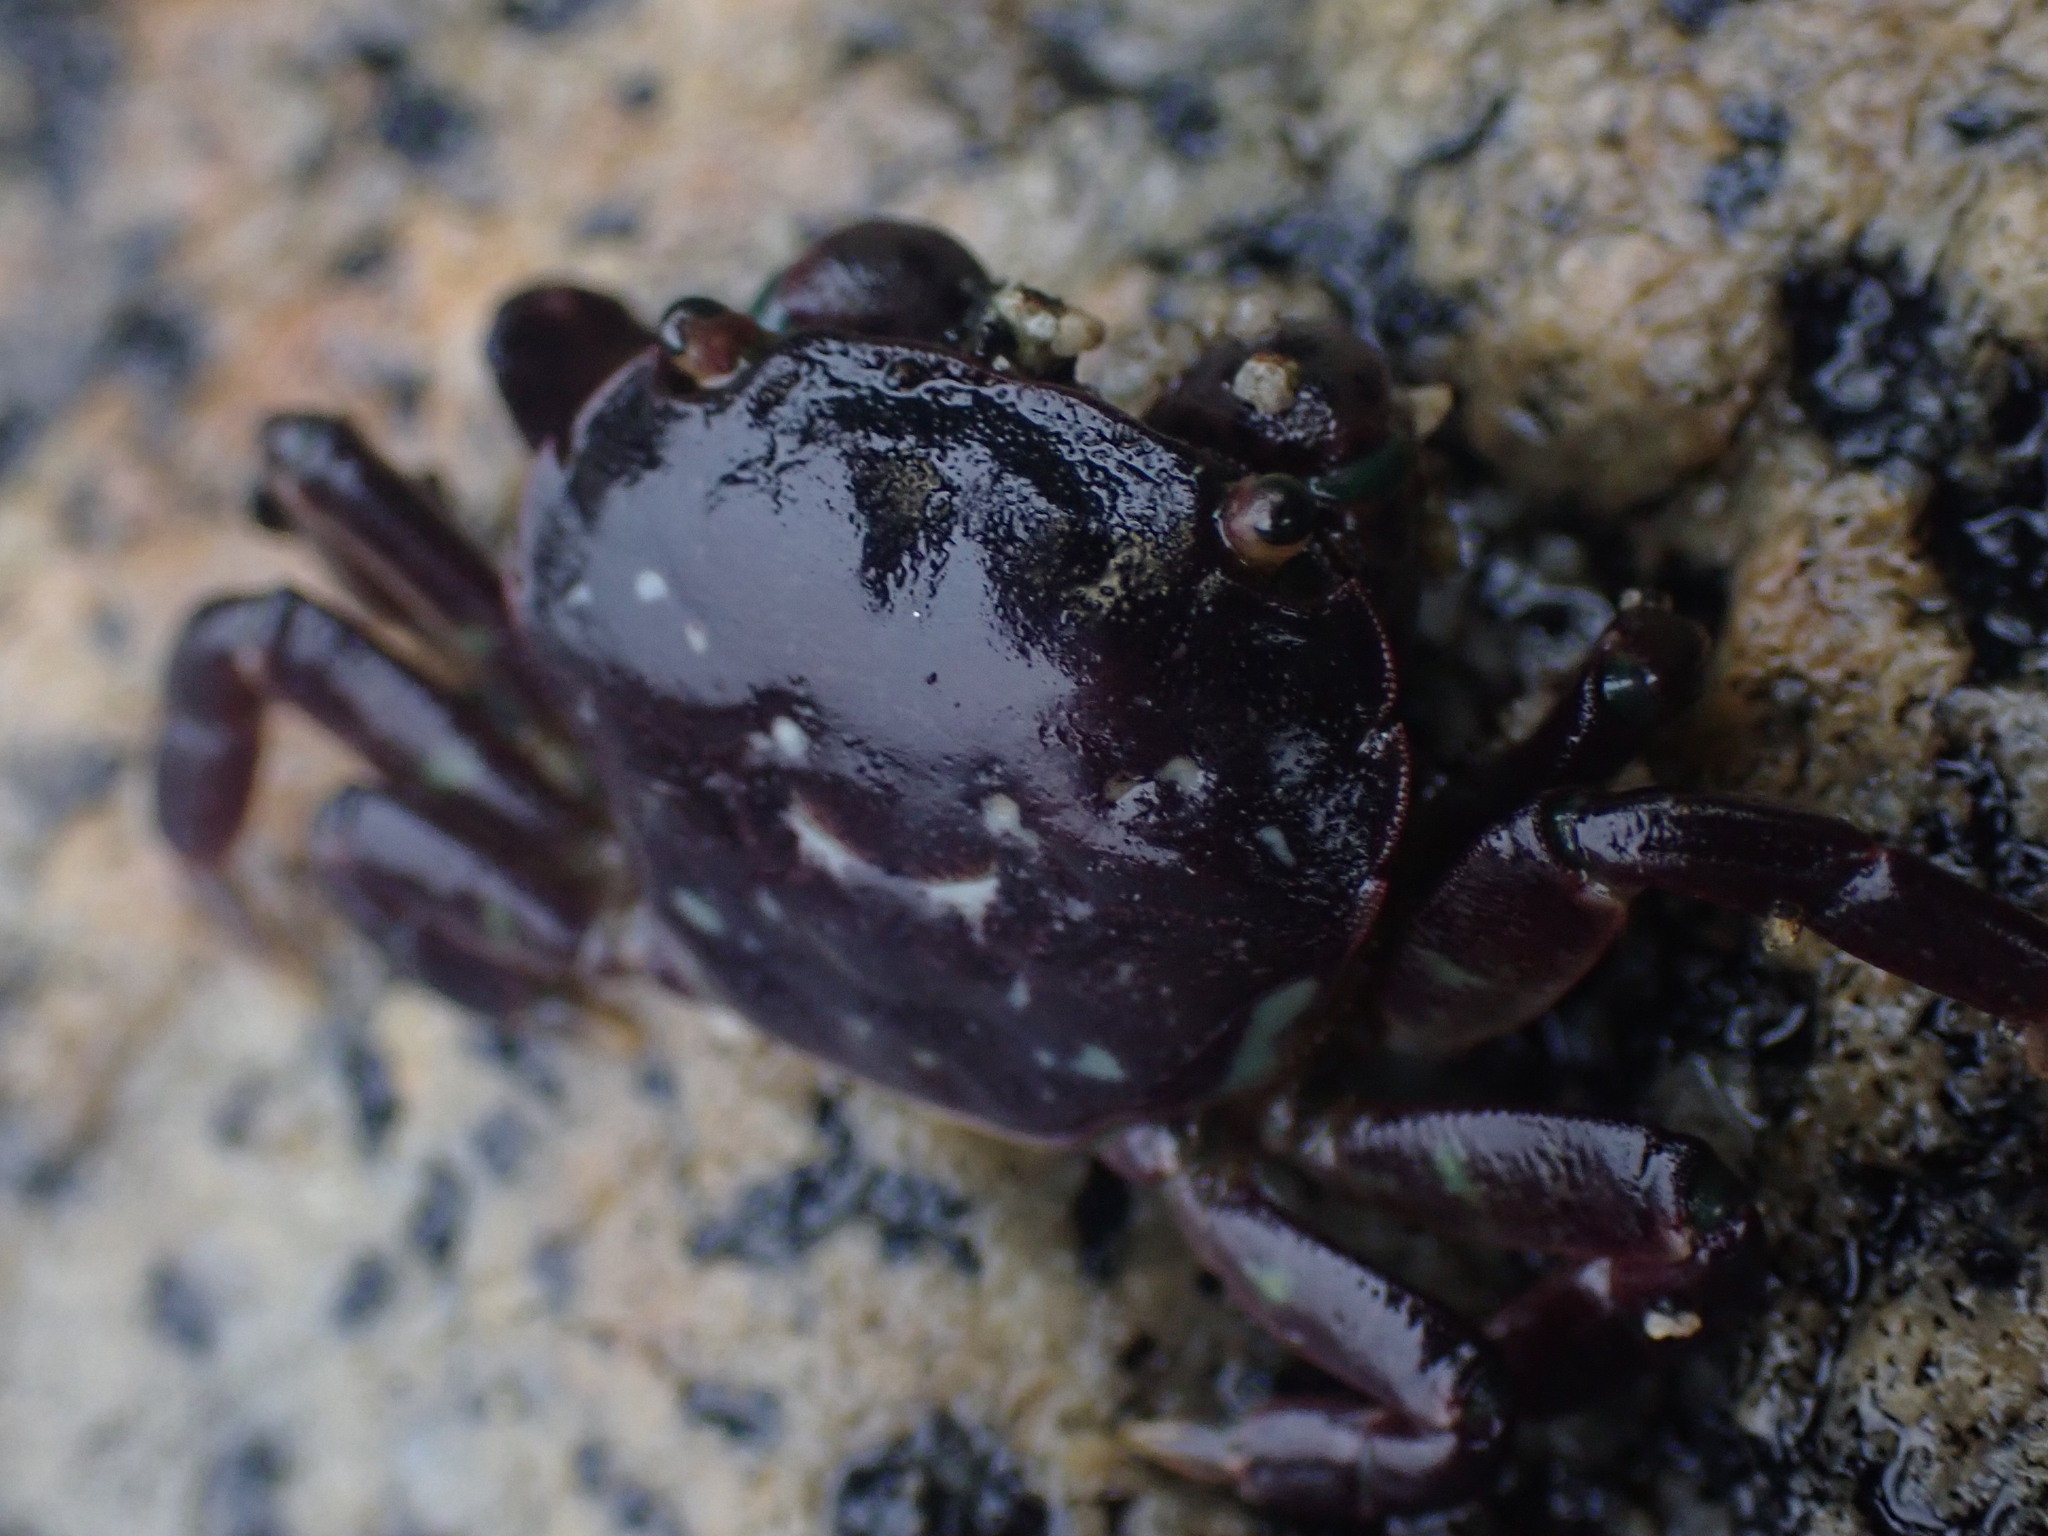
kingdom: Animalia
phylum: Arthropoda
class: Malacostraca
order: Decapoda
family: Varunidae
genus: Hemigrapsus
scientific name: Hemigrapsus nudus
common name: Purple shore crab
